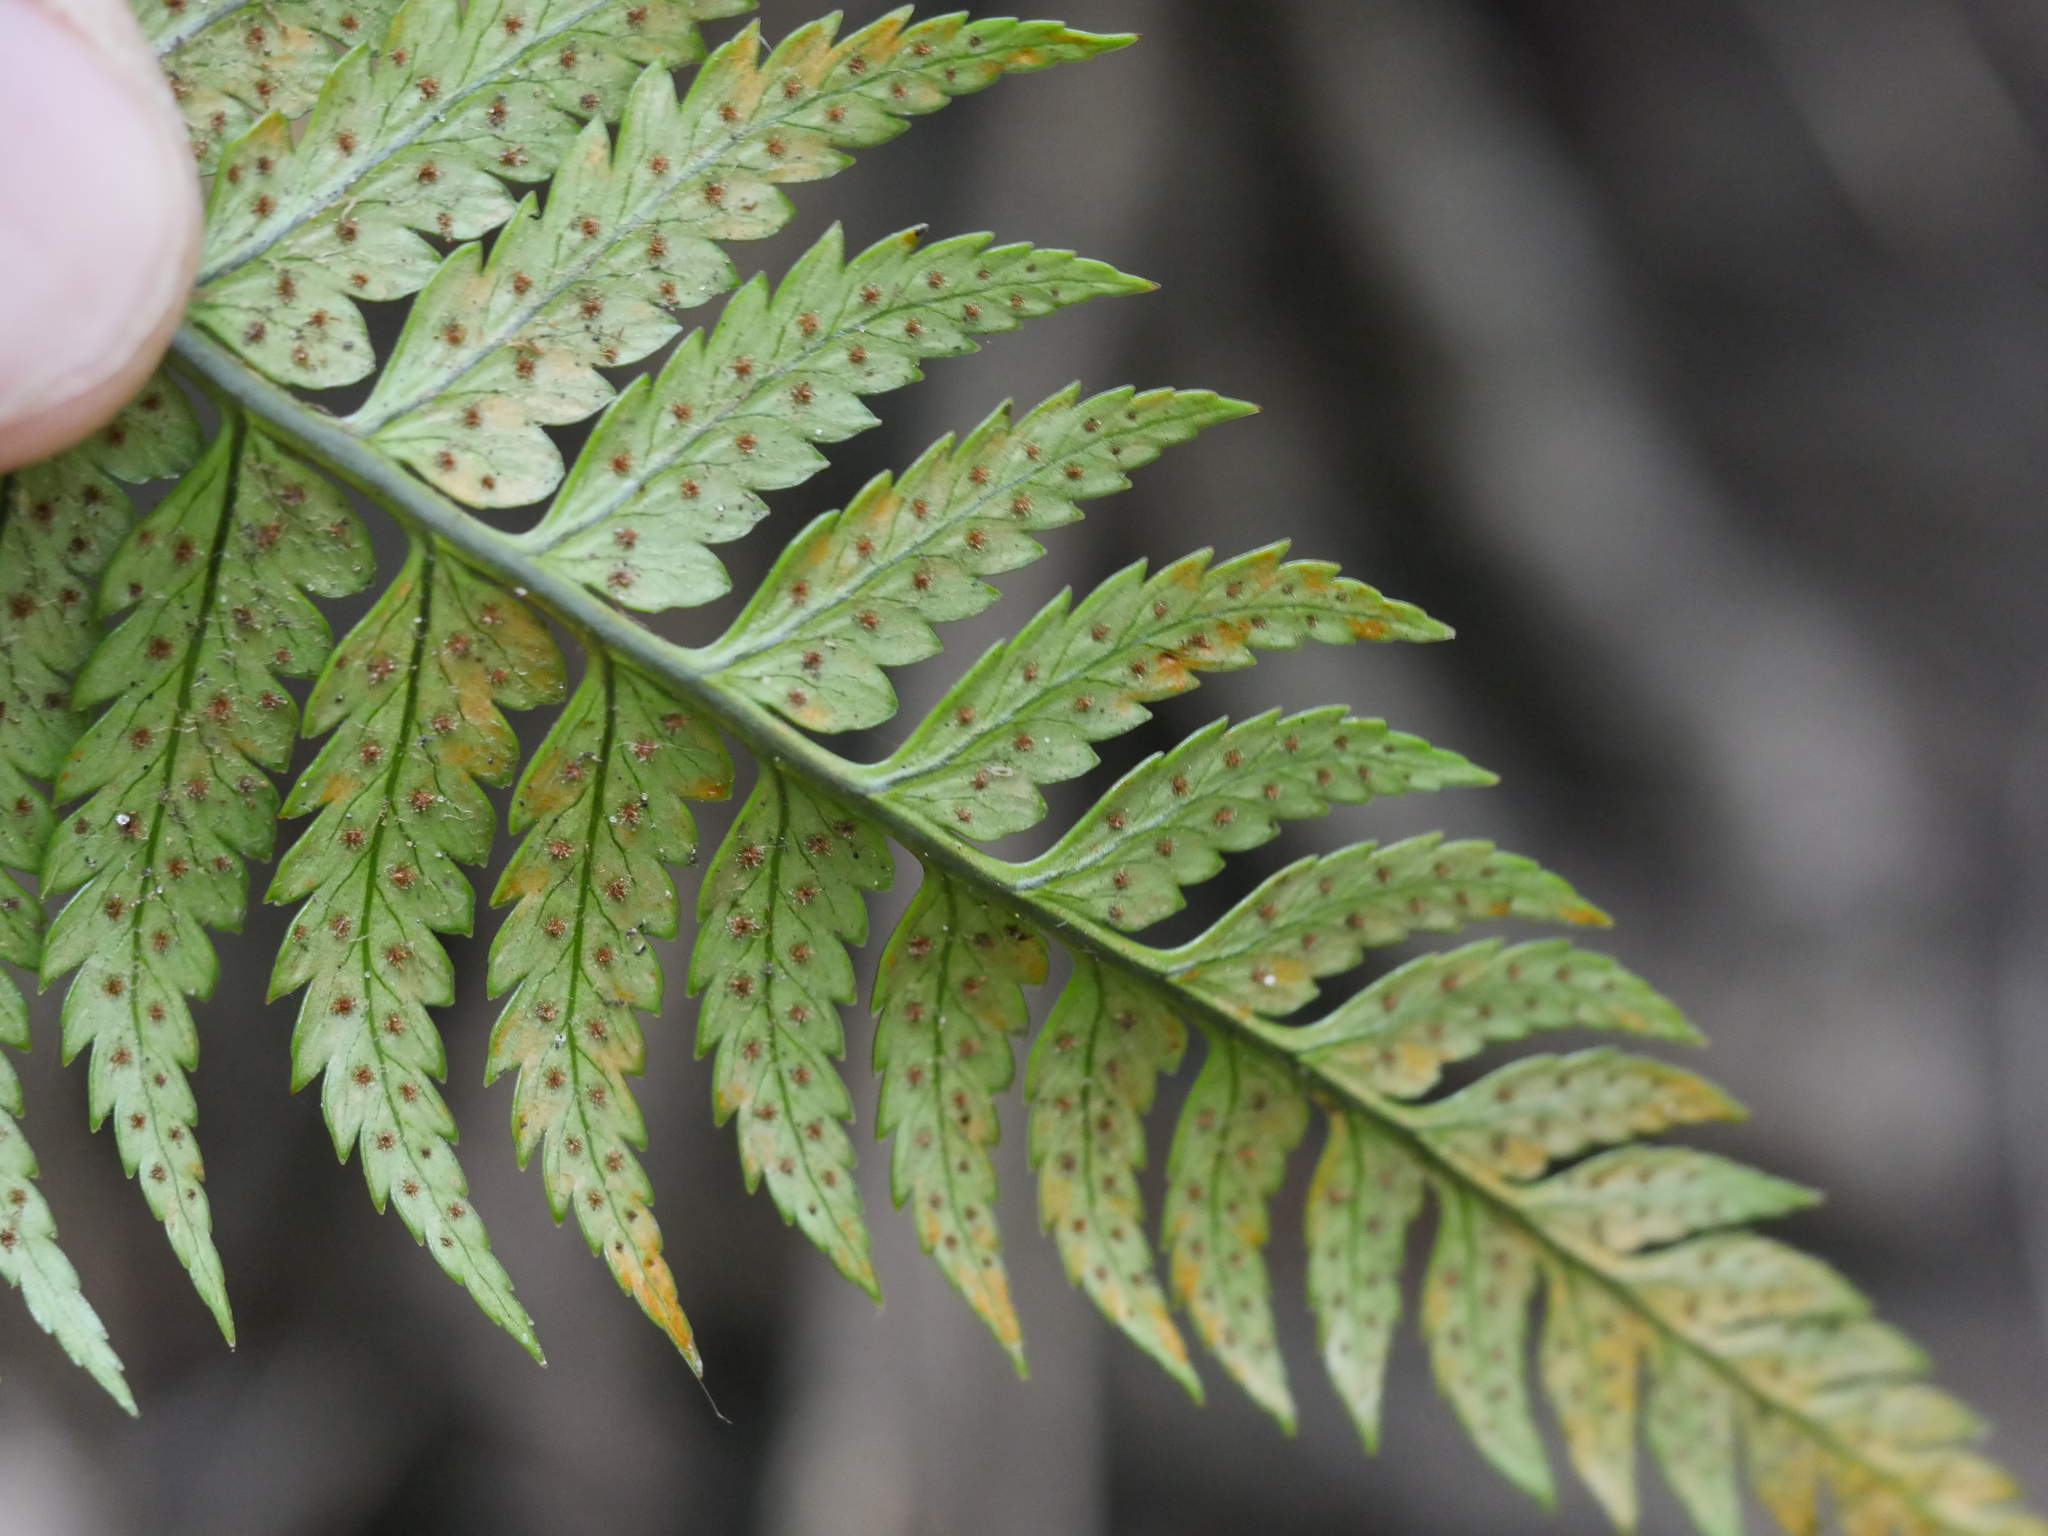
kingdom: Plantae
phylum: Tracheophyta
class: Polypodiopsida
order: Polypodiales
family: Dryopteridaceae
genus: Polystichum
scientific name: Polystichum wawranum
